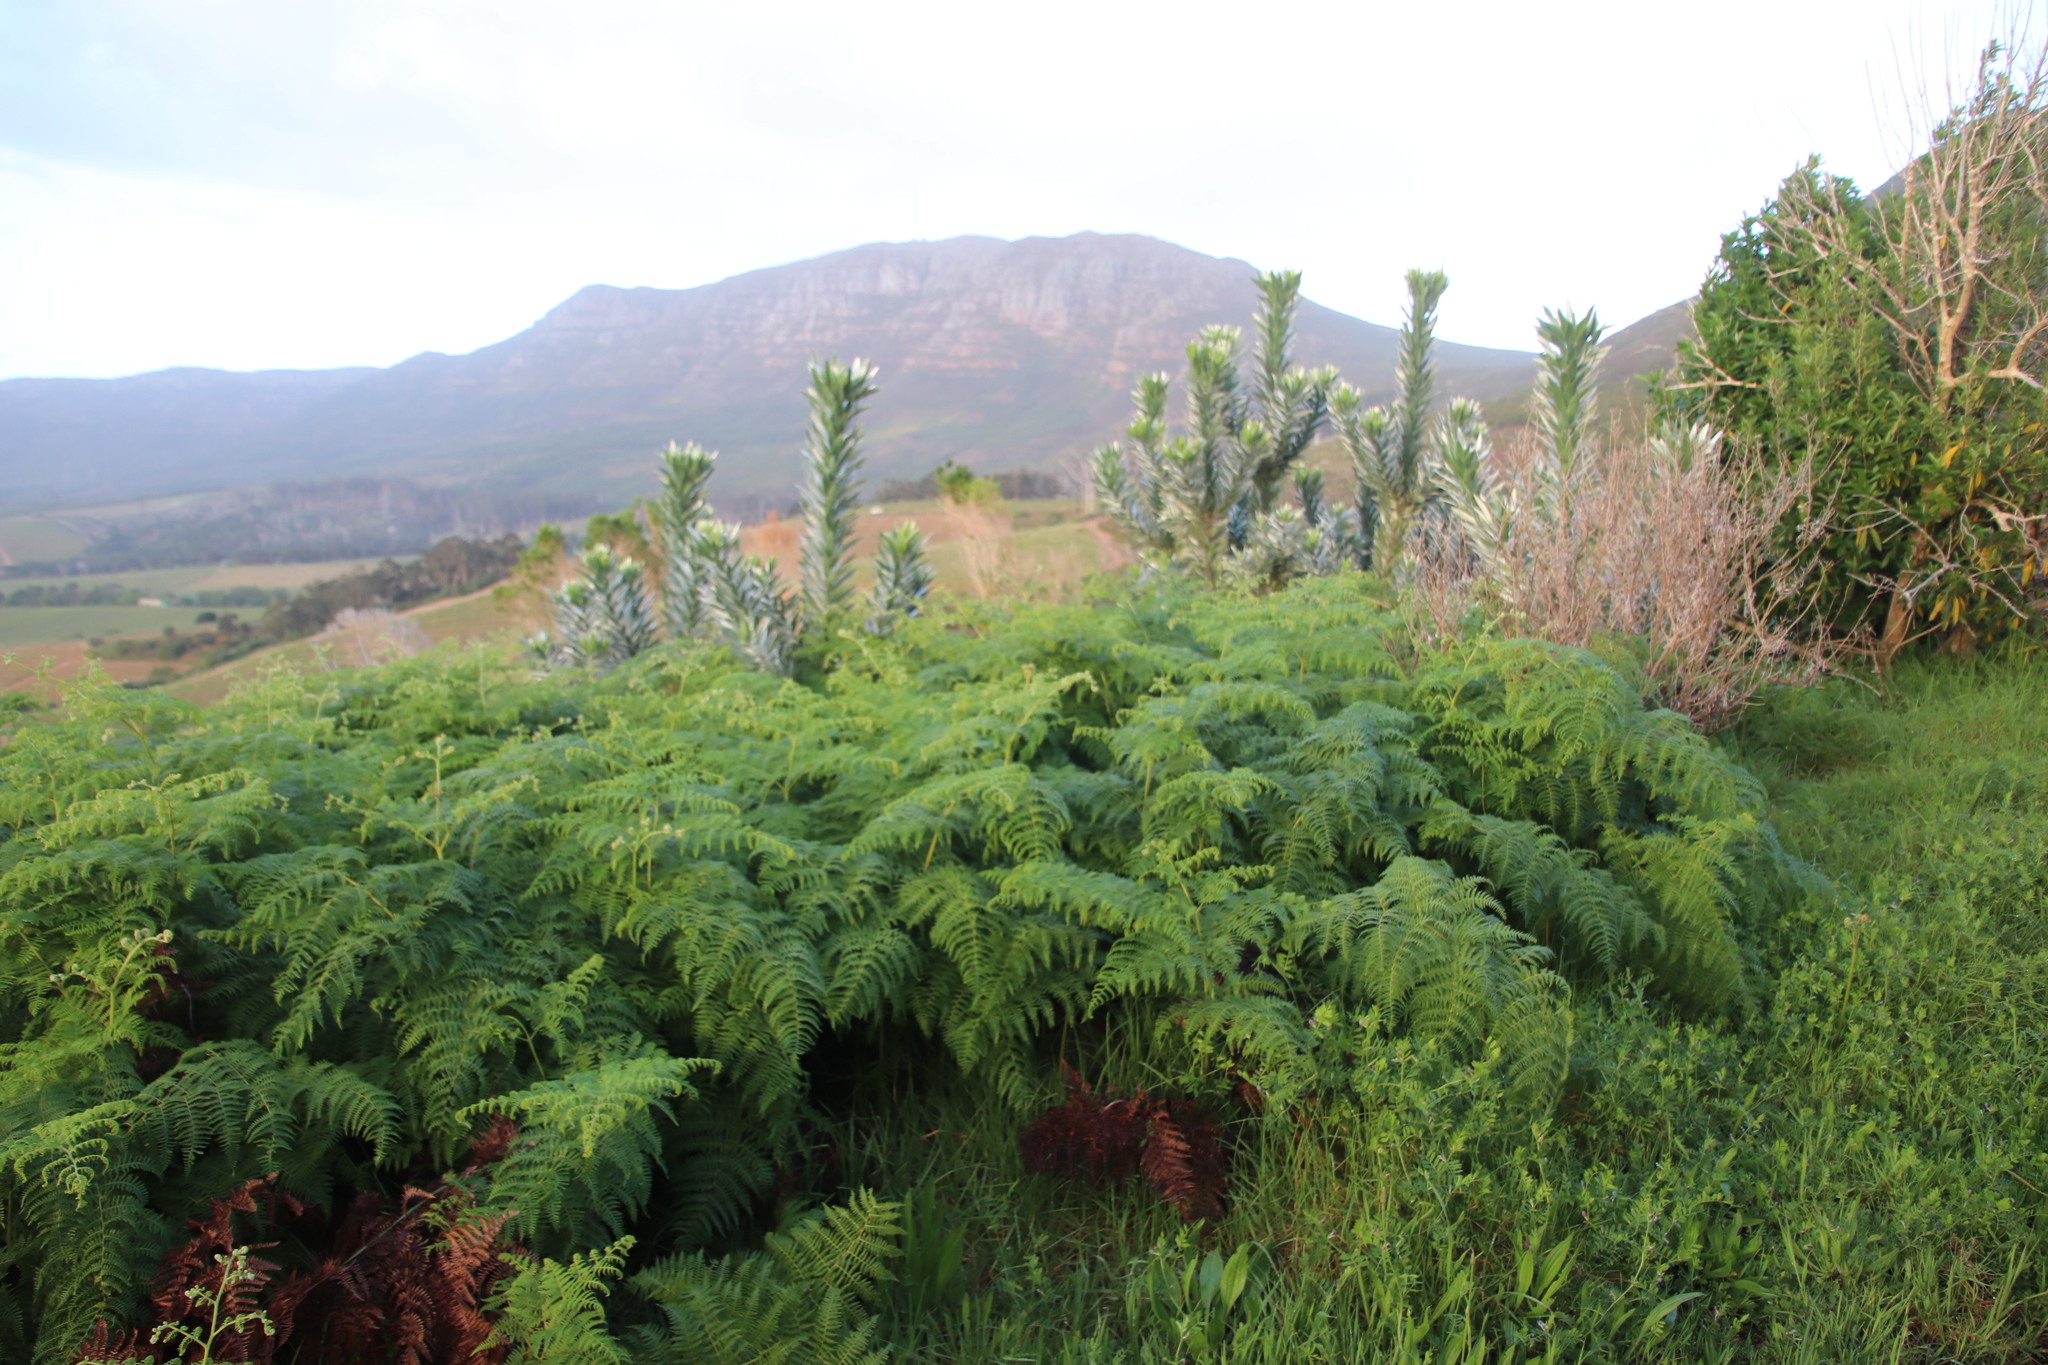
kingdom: Plantae
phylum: Tracheophyta
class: Polypodiopsida
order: Polypodiales
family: Dennstaedtiaceae
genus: Pteridium
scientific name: Pteridium aquilinum
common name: Bracken
